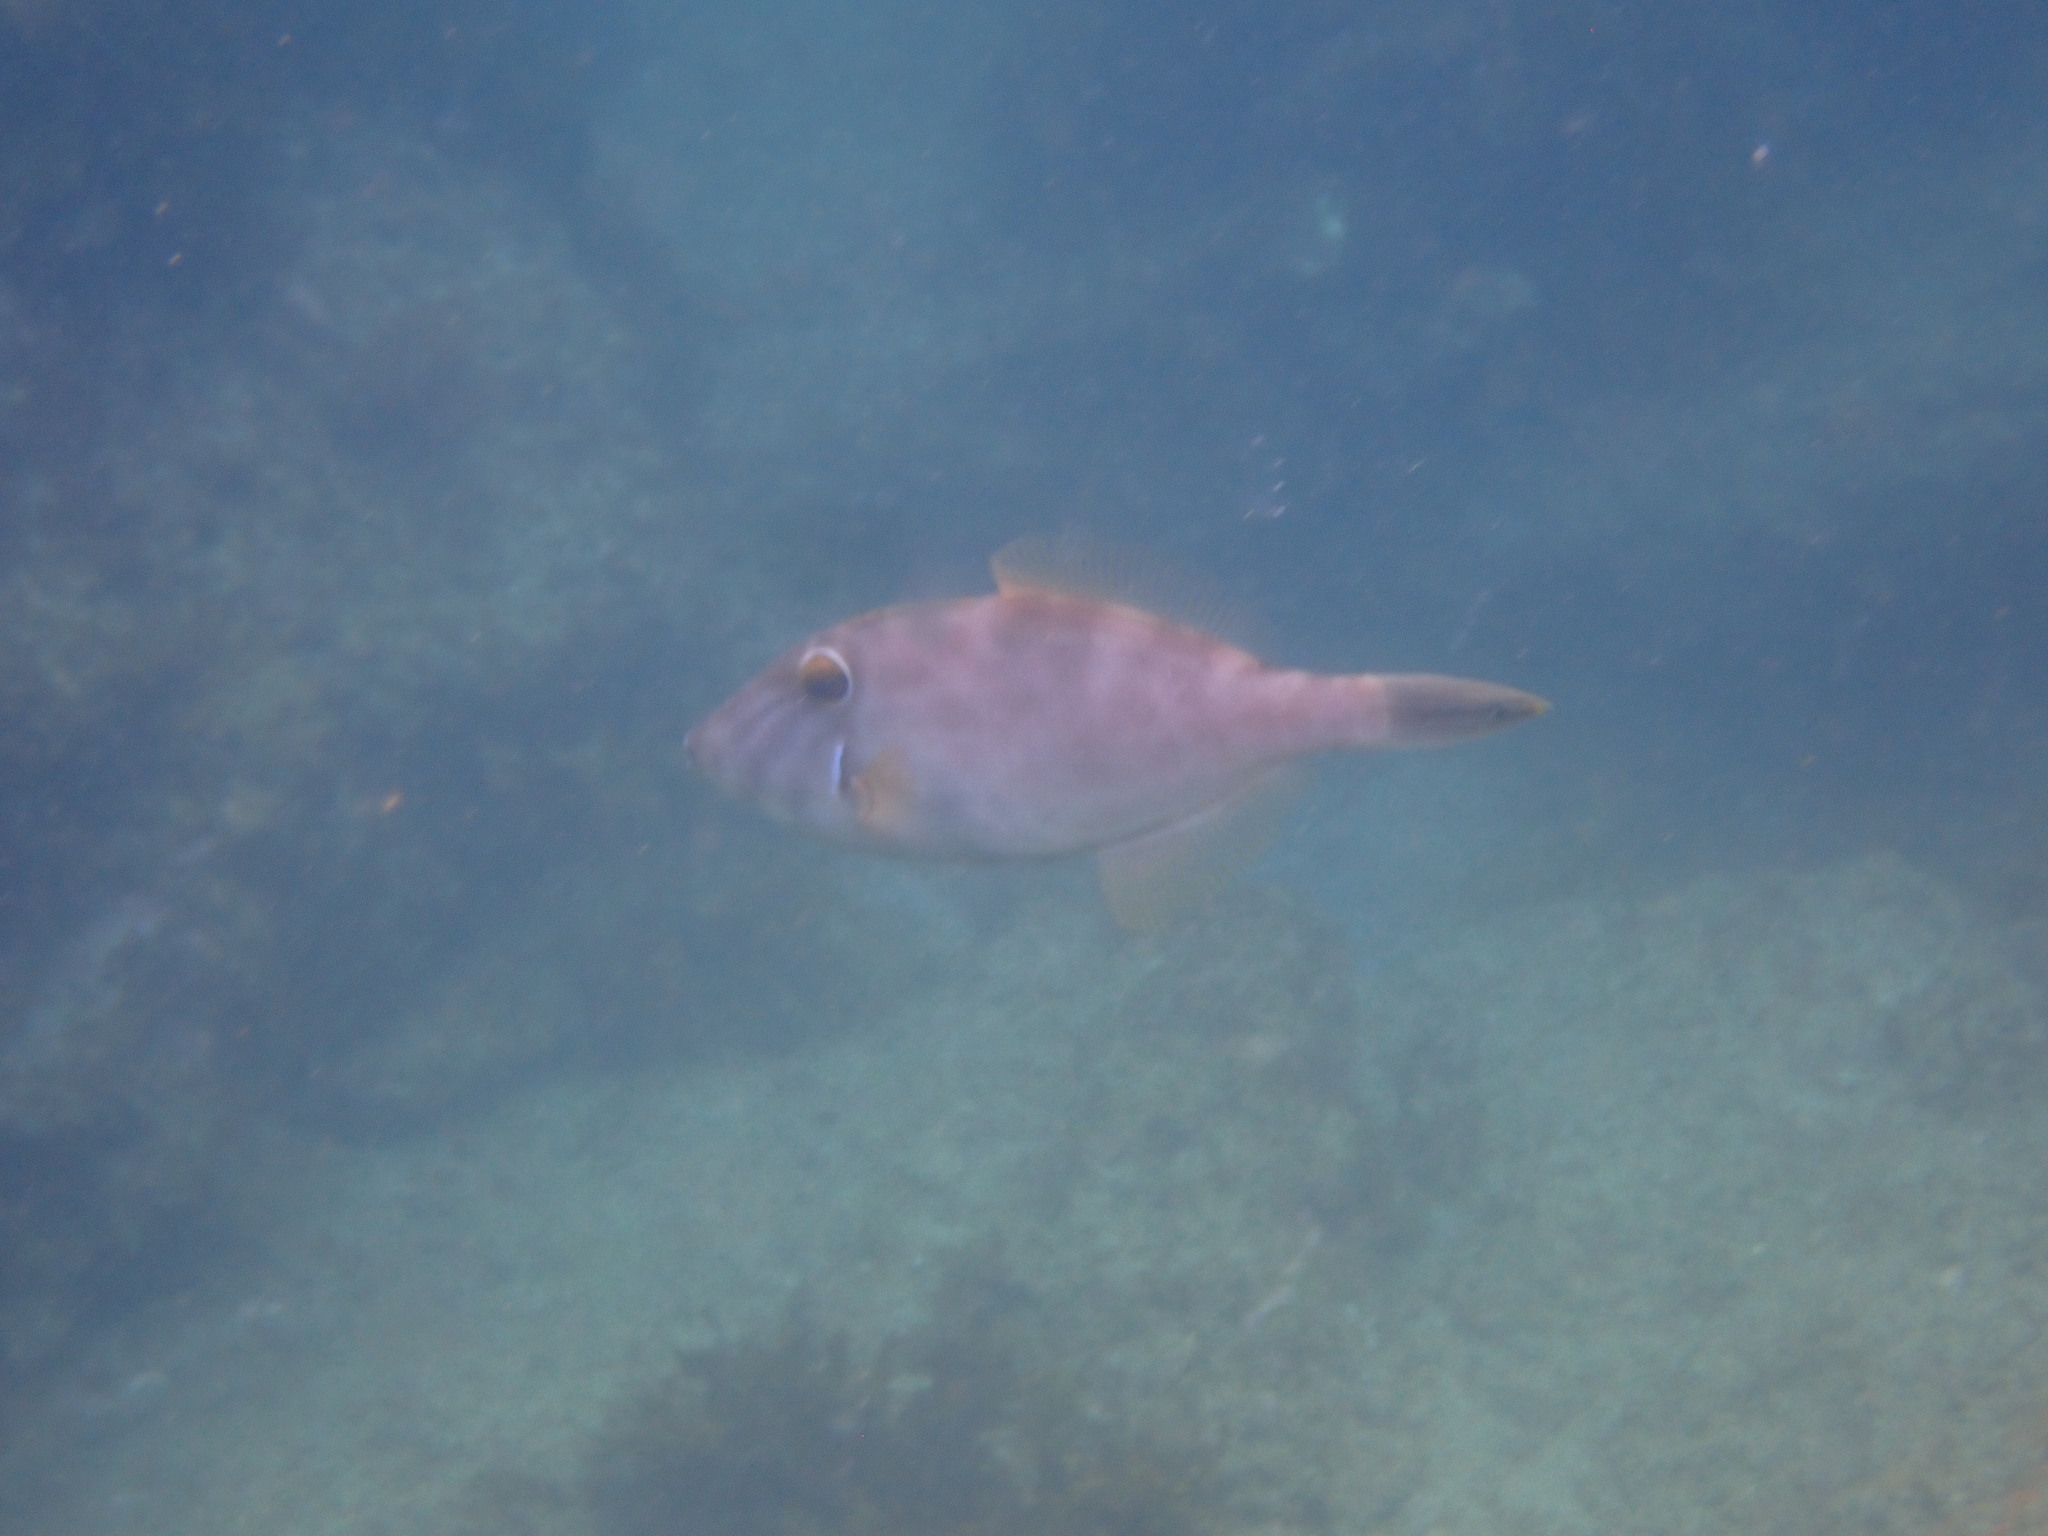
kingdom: Animalia
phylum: Chordata
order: Tetraodontiformes
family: Monacanthidae
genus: Meuschenia
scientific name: Meuschenia scaber
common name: Cosmopolitan leatherjacket
